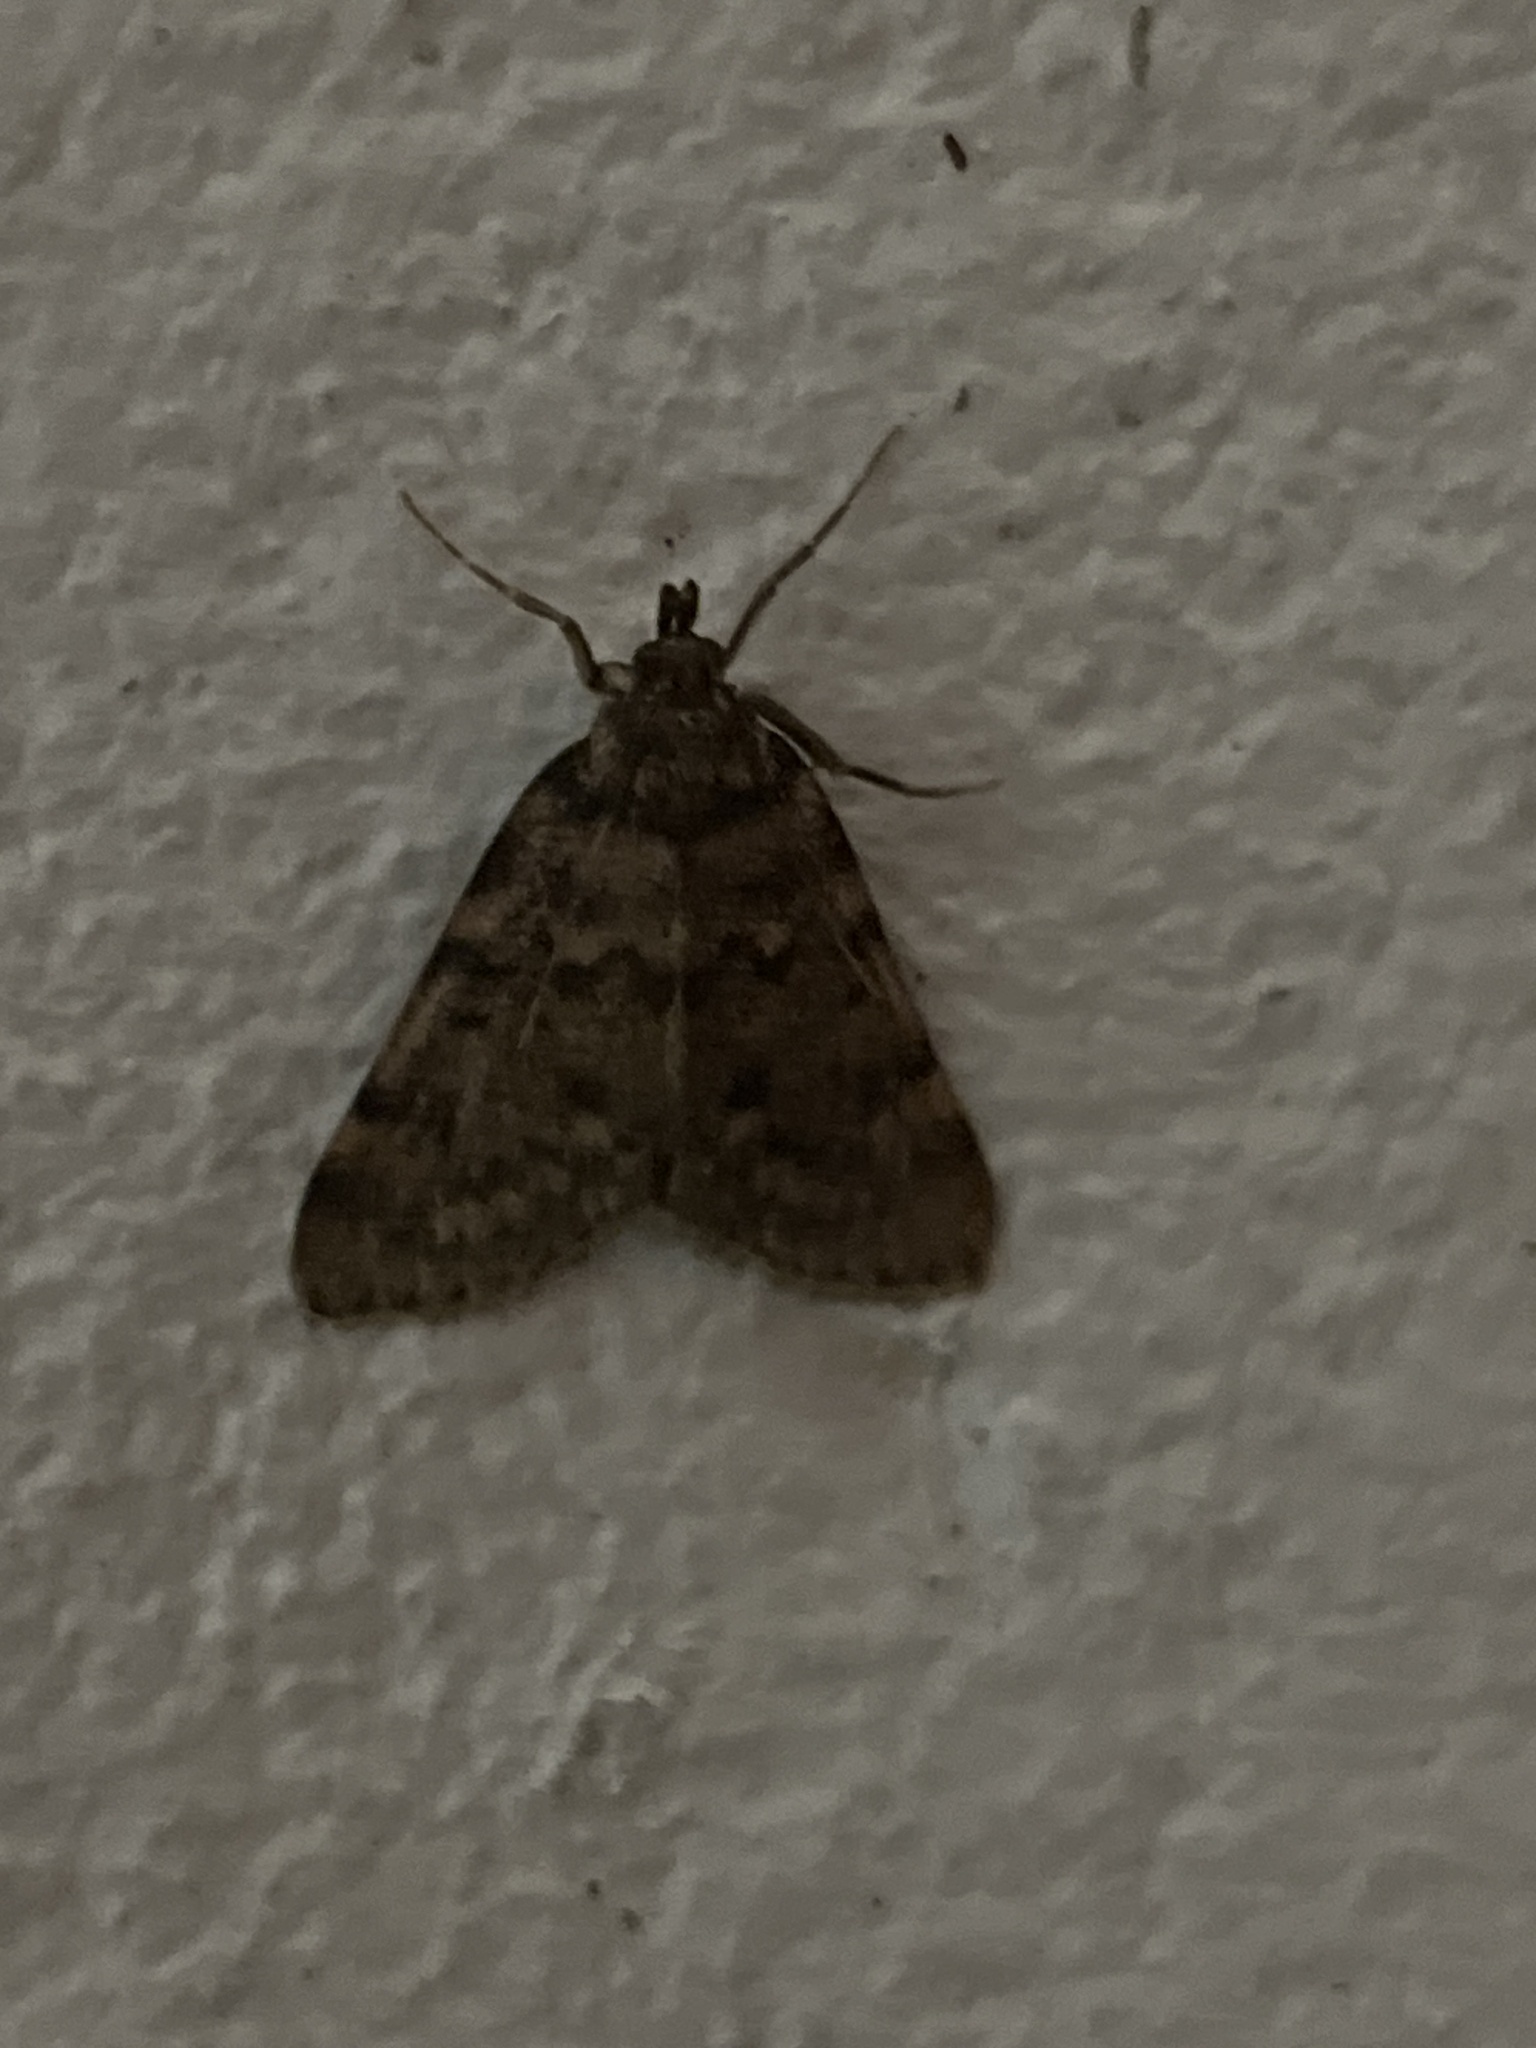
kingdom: Animalia
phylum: Arthropoda
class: Insecta
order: Lepidoptera
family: Pyralidae
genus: Aglossa
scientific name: Aglossa pinguinalis
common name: Large tabby
